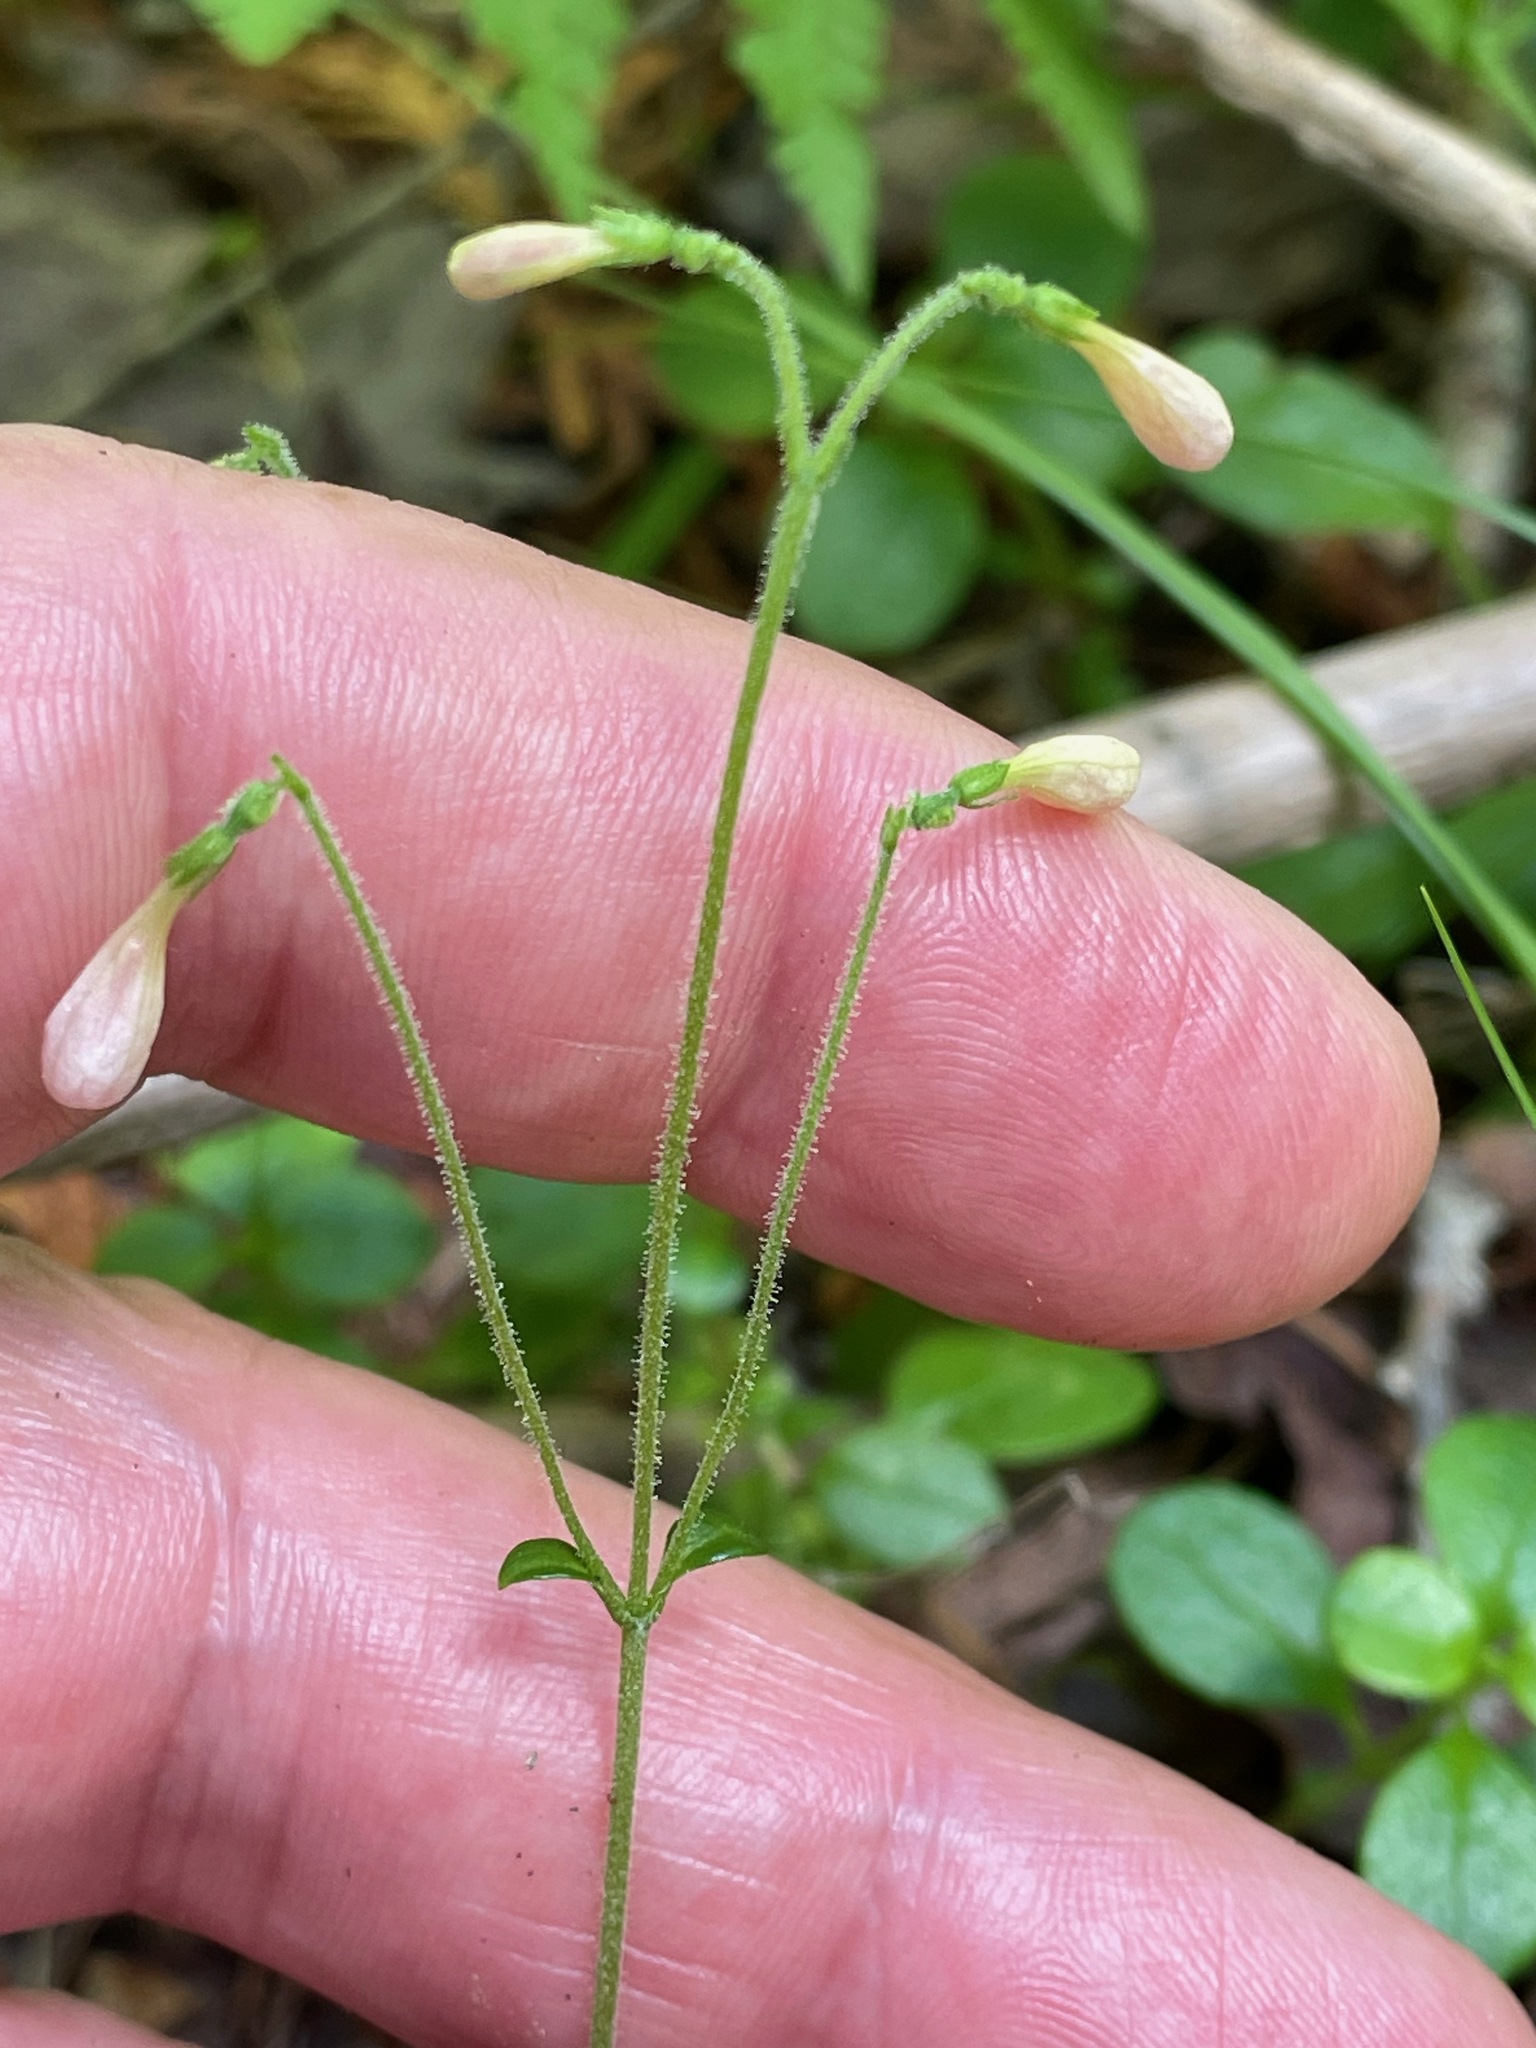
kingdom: Plantae
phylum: Tracheophyta
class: Magnoliopsida
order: Dipsacales
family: Caprifoliaceae
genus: Linnaea
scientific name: Linnaea borealis
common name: Twinflower
